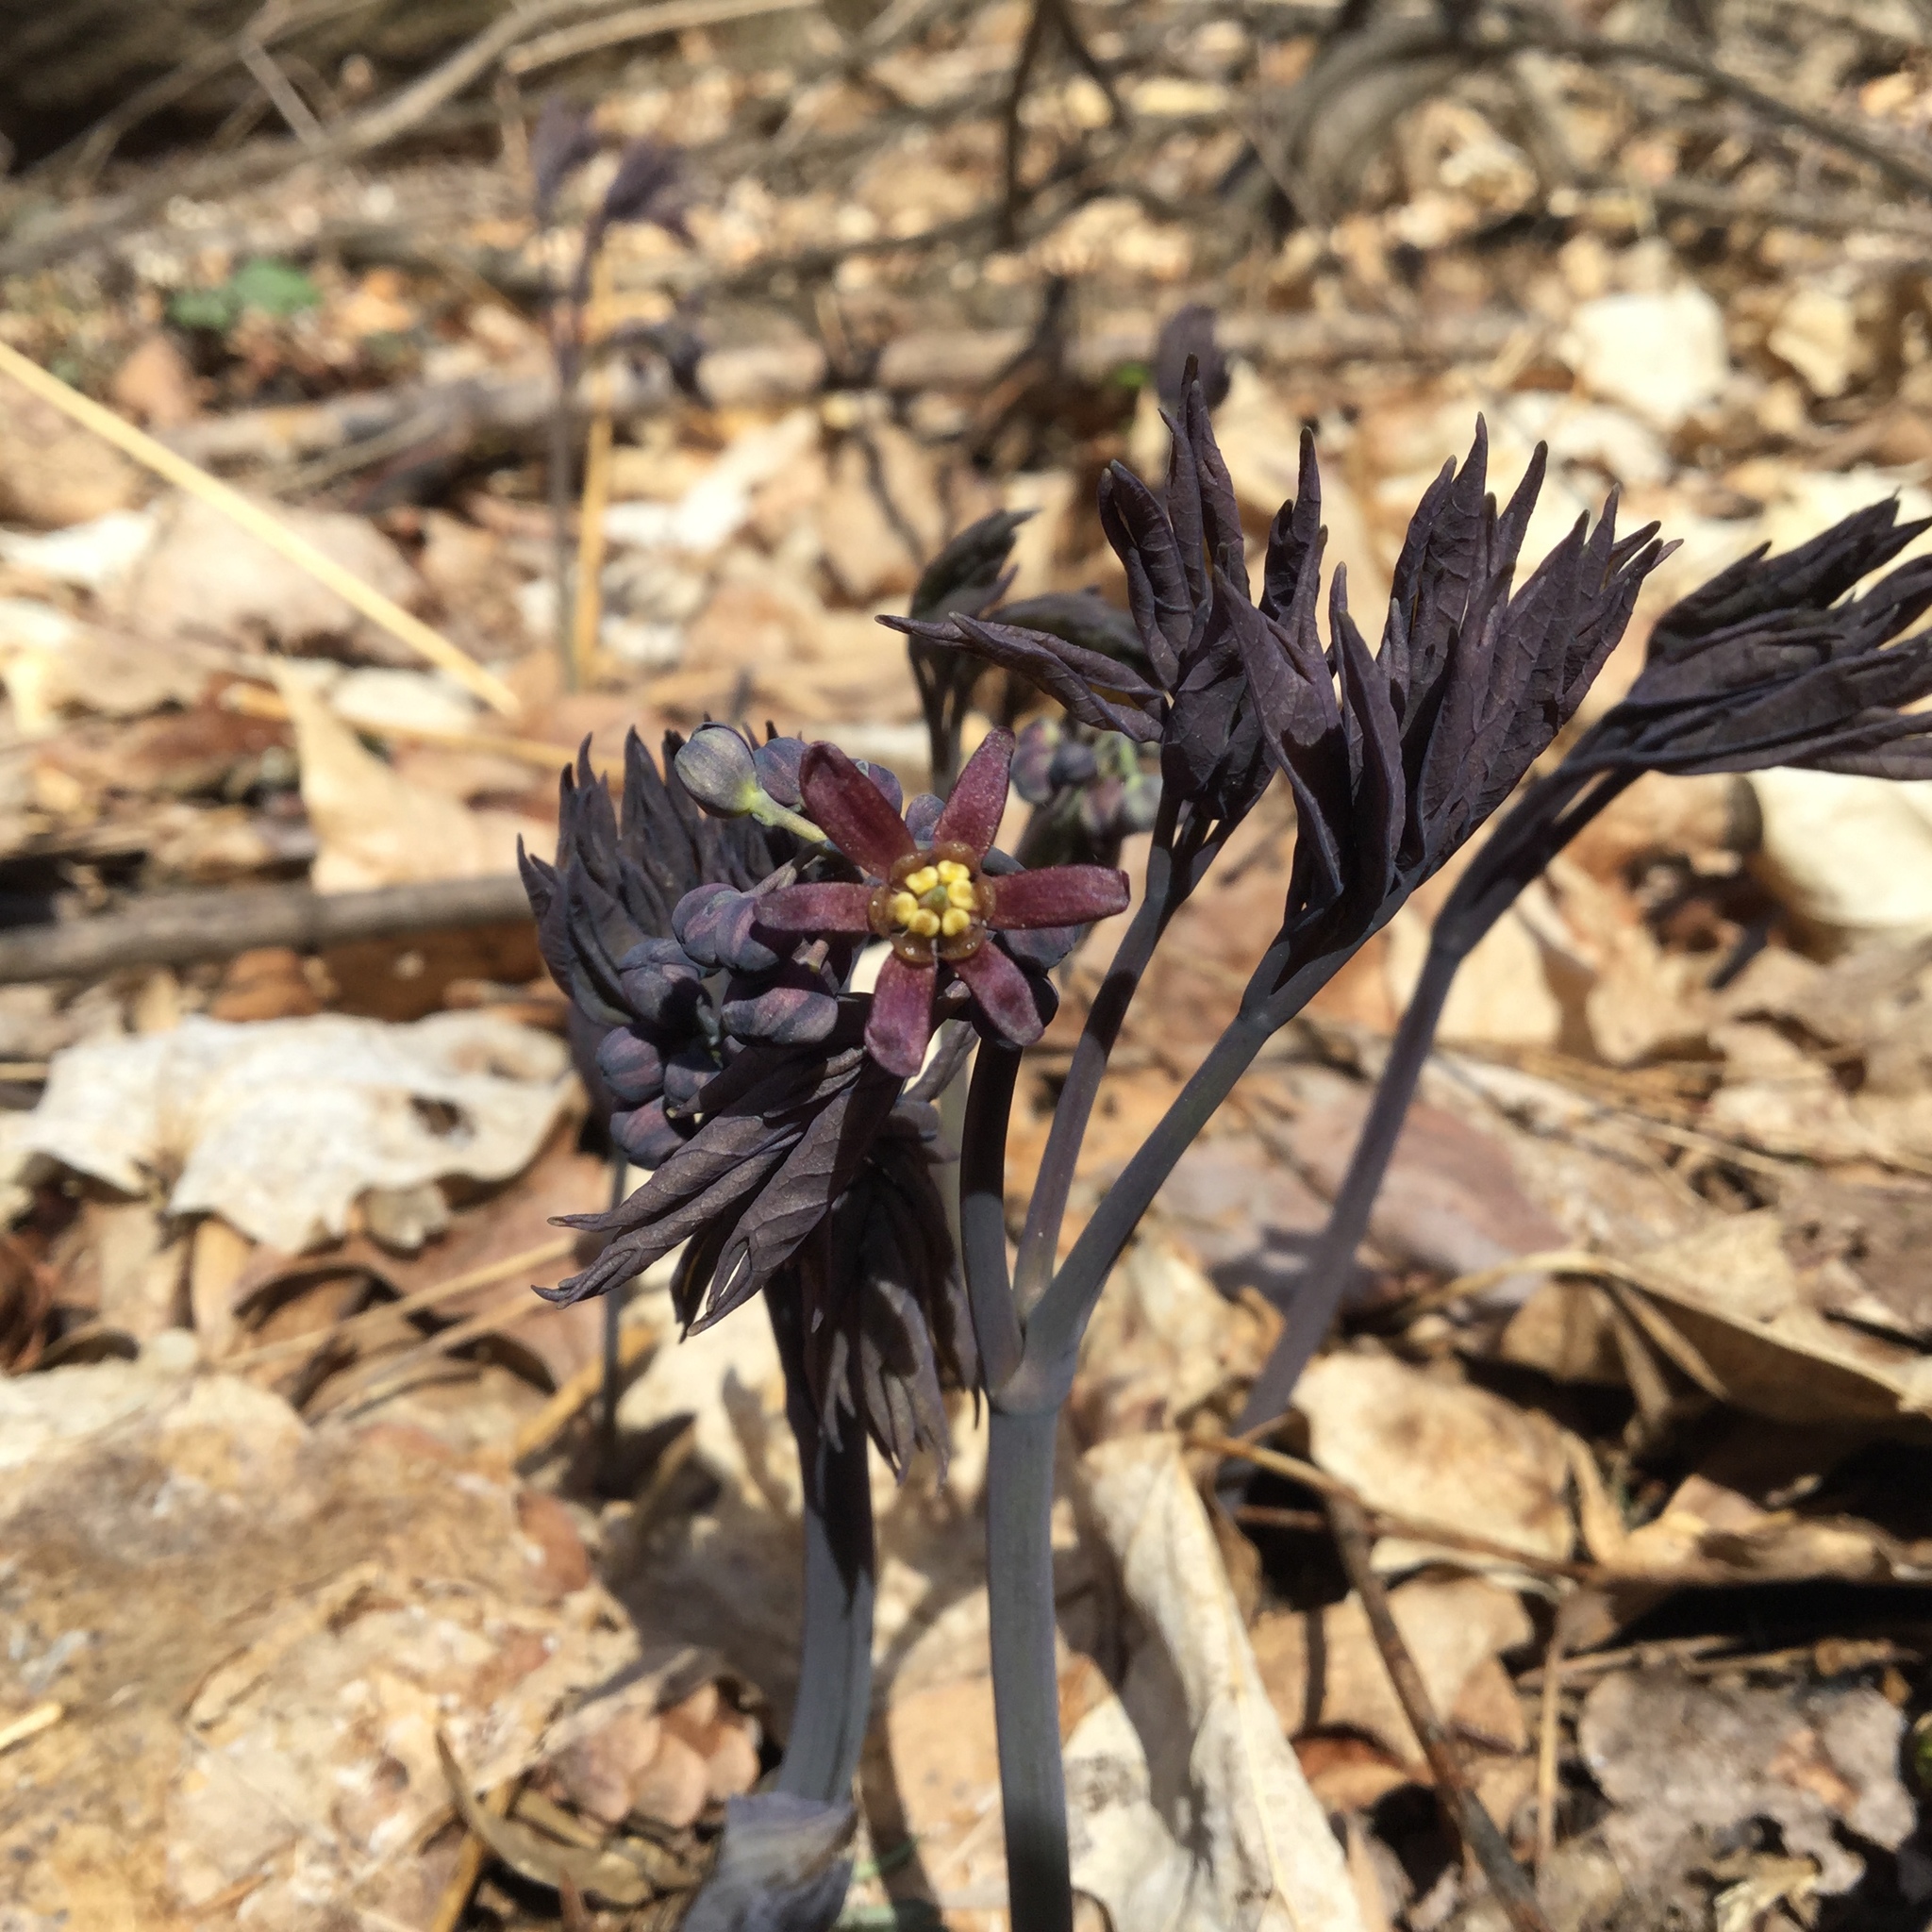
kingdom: Plantae
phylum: Tracheophyta
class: Magnoliopsida
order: Ranunculales
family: Berberidaceae
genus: Caulophyllum
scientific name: Caulophyllum giganteum
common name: Blue cohosh
